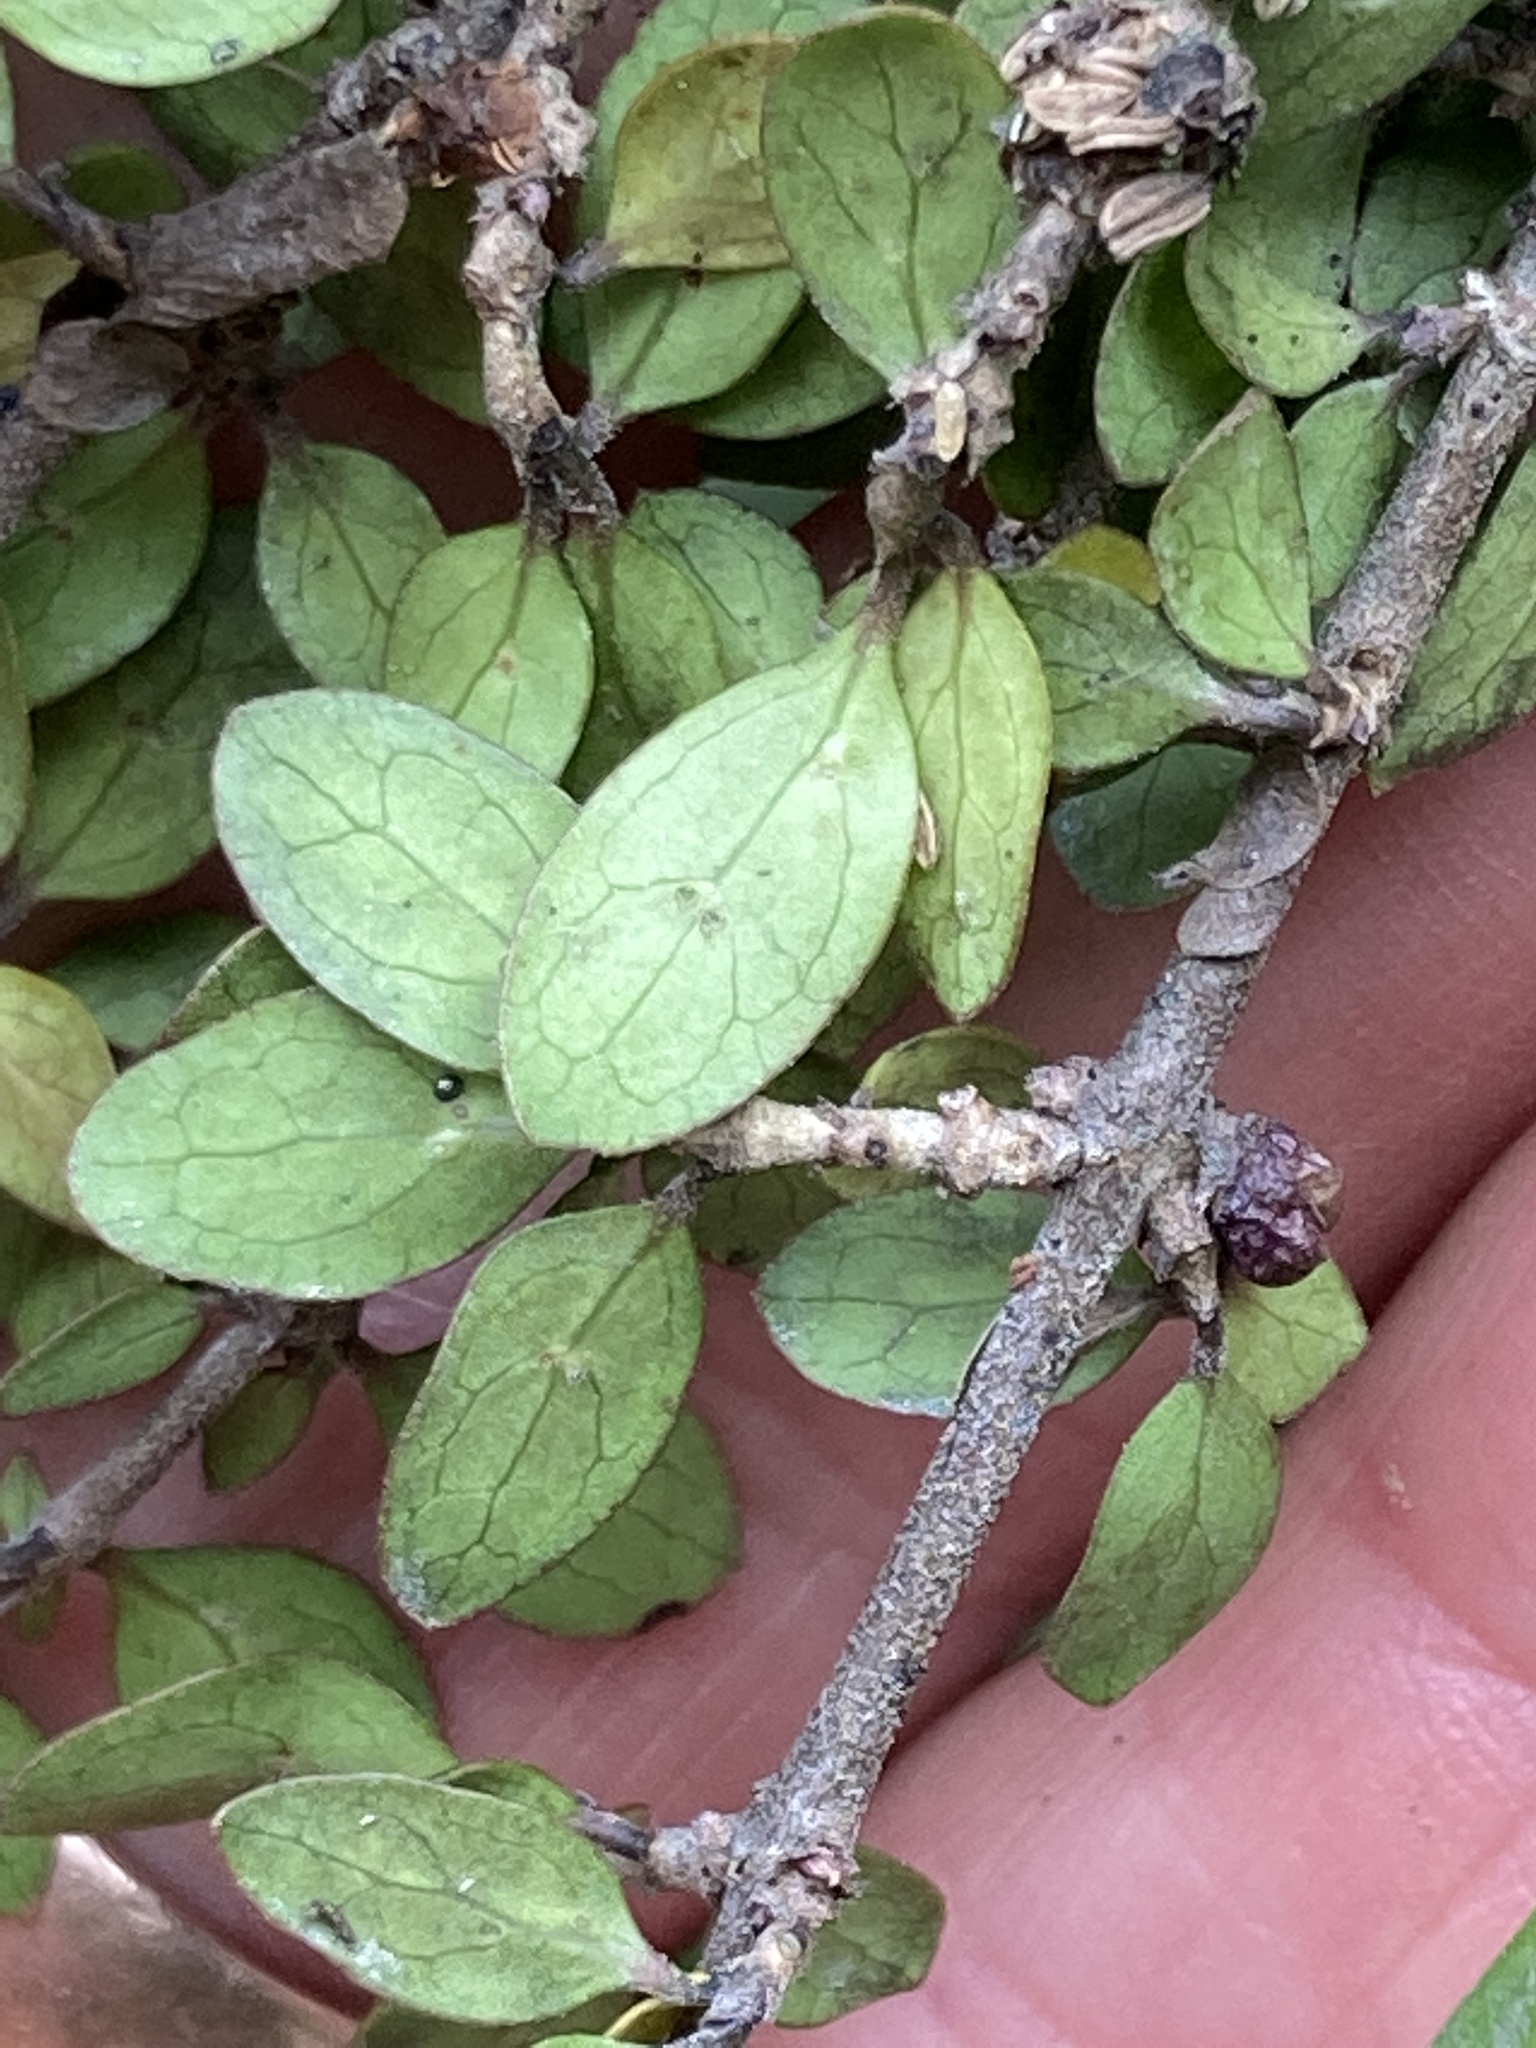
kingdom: Plantae
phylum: Tracheophyta
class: Magnoliopsida
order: Gentianales
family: Rubiaceae
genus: Coprosma
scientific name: Coprosma wallii
